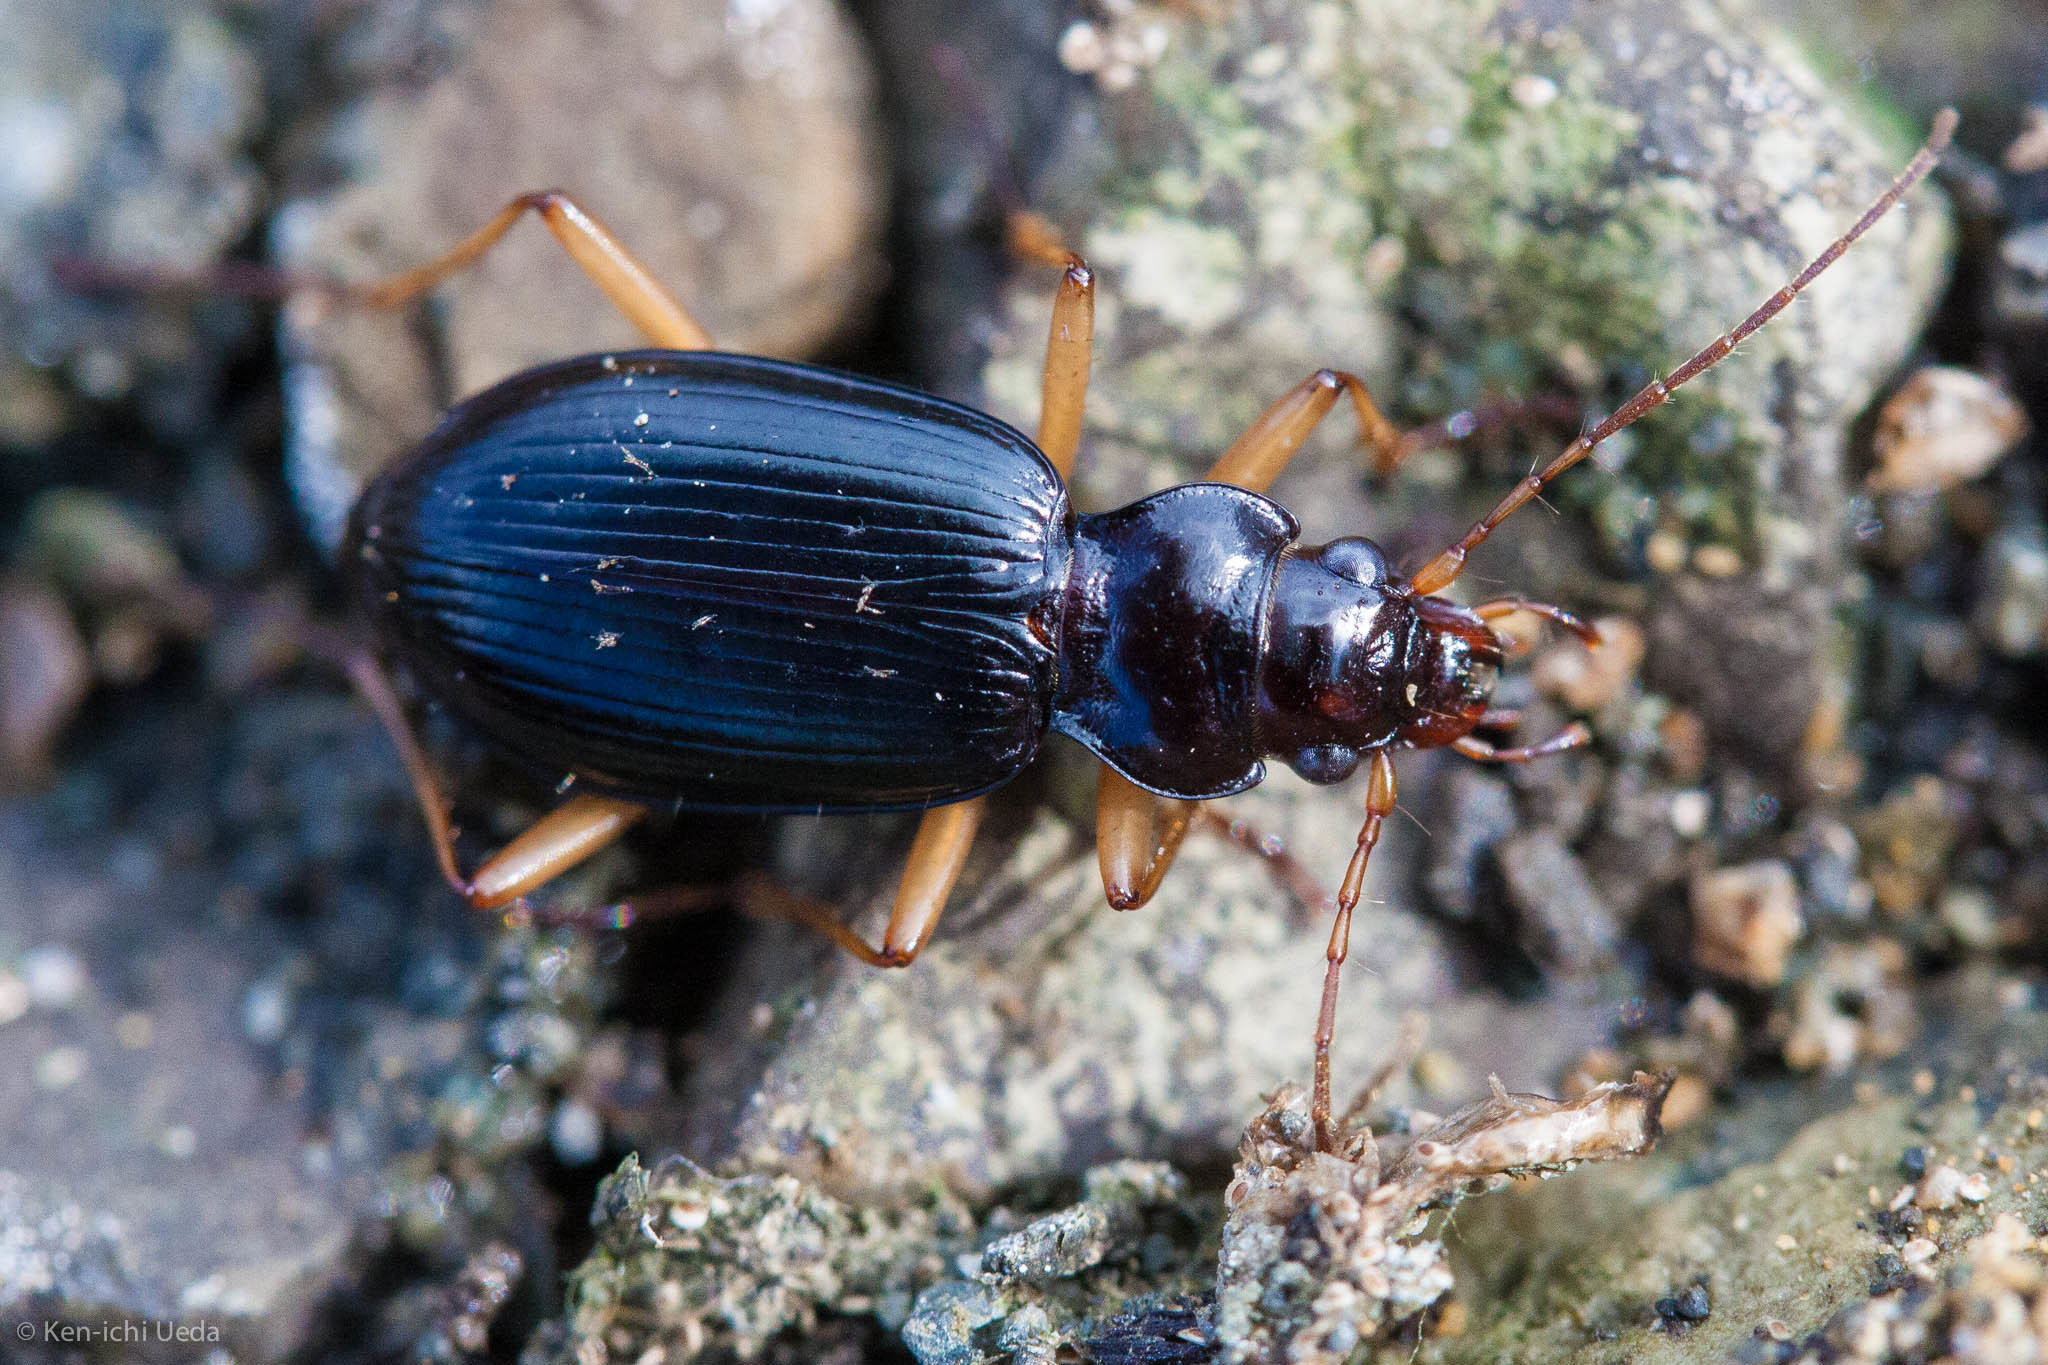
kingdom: Animalia
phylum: Arthropoda
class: Insecta
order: Coleoptera
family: Carabidae
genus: Nebria
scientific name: Nebria eschscholtzii
